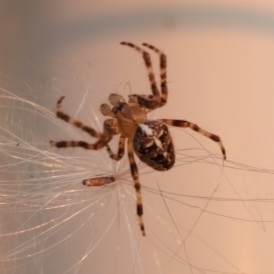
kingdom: Animalia
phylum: Arthropoda
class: Arachnida
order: Araneae
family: Araneidae
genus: Araneus
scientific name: Araneus diadematus
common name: Cross orbweaver
